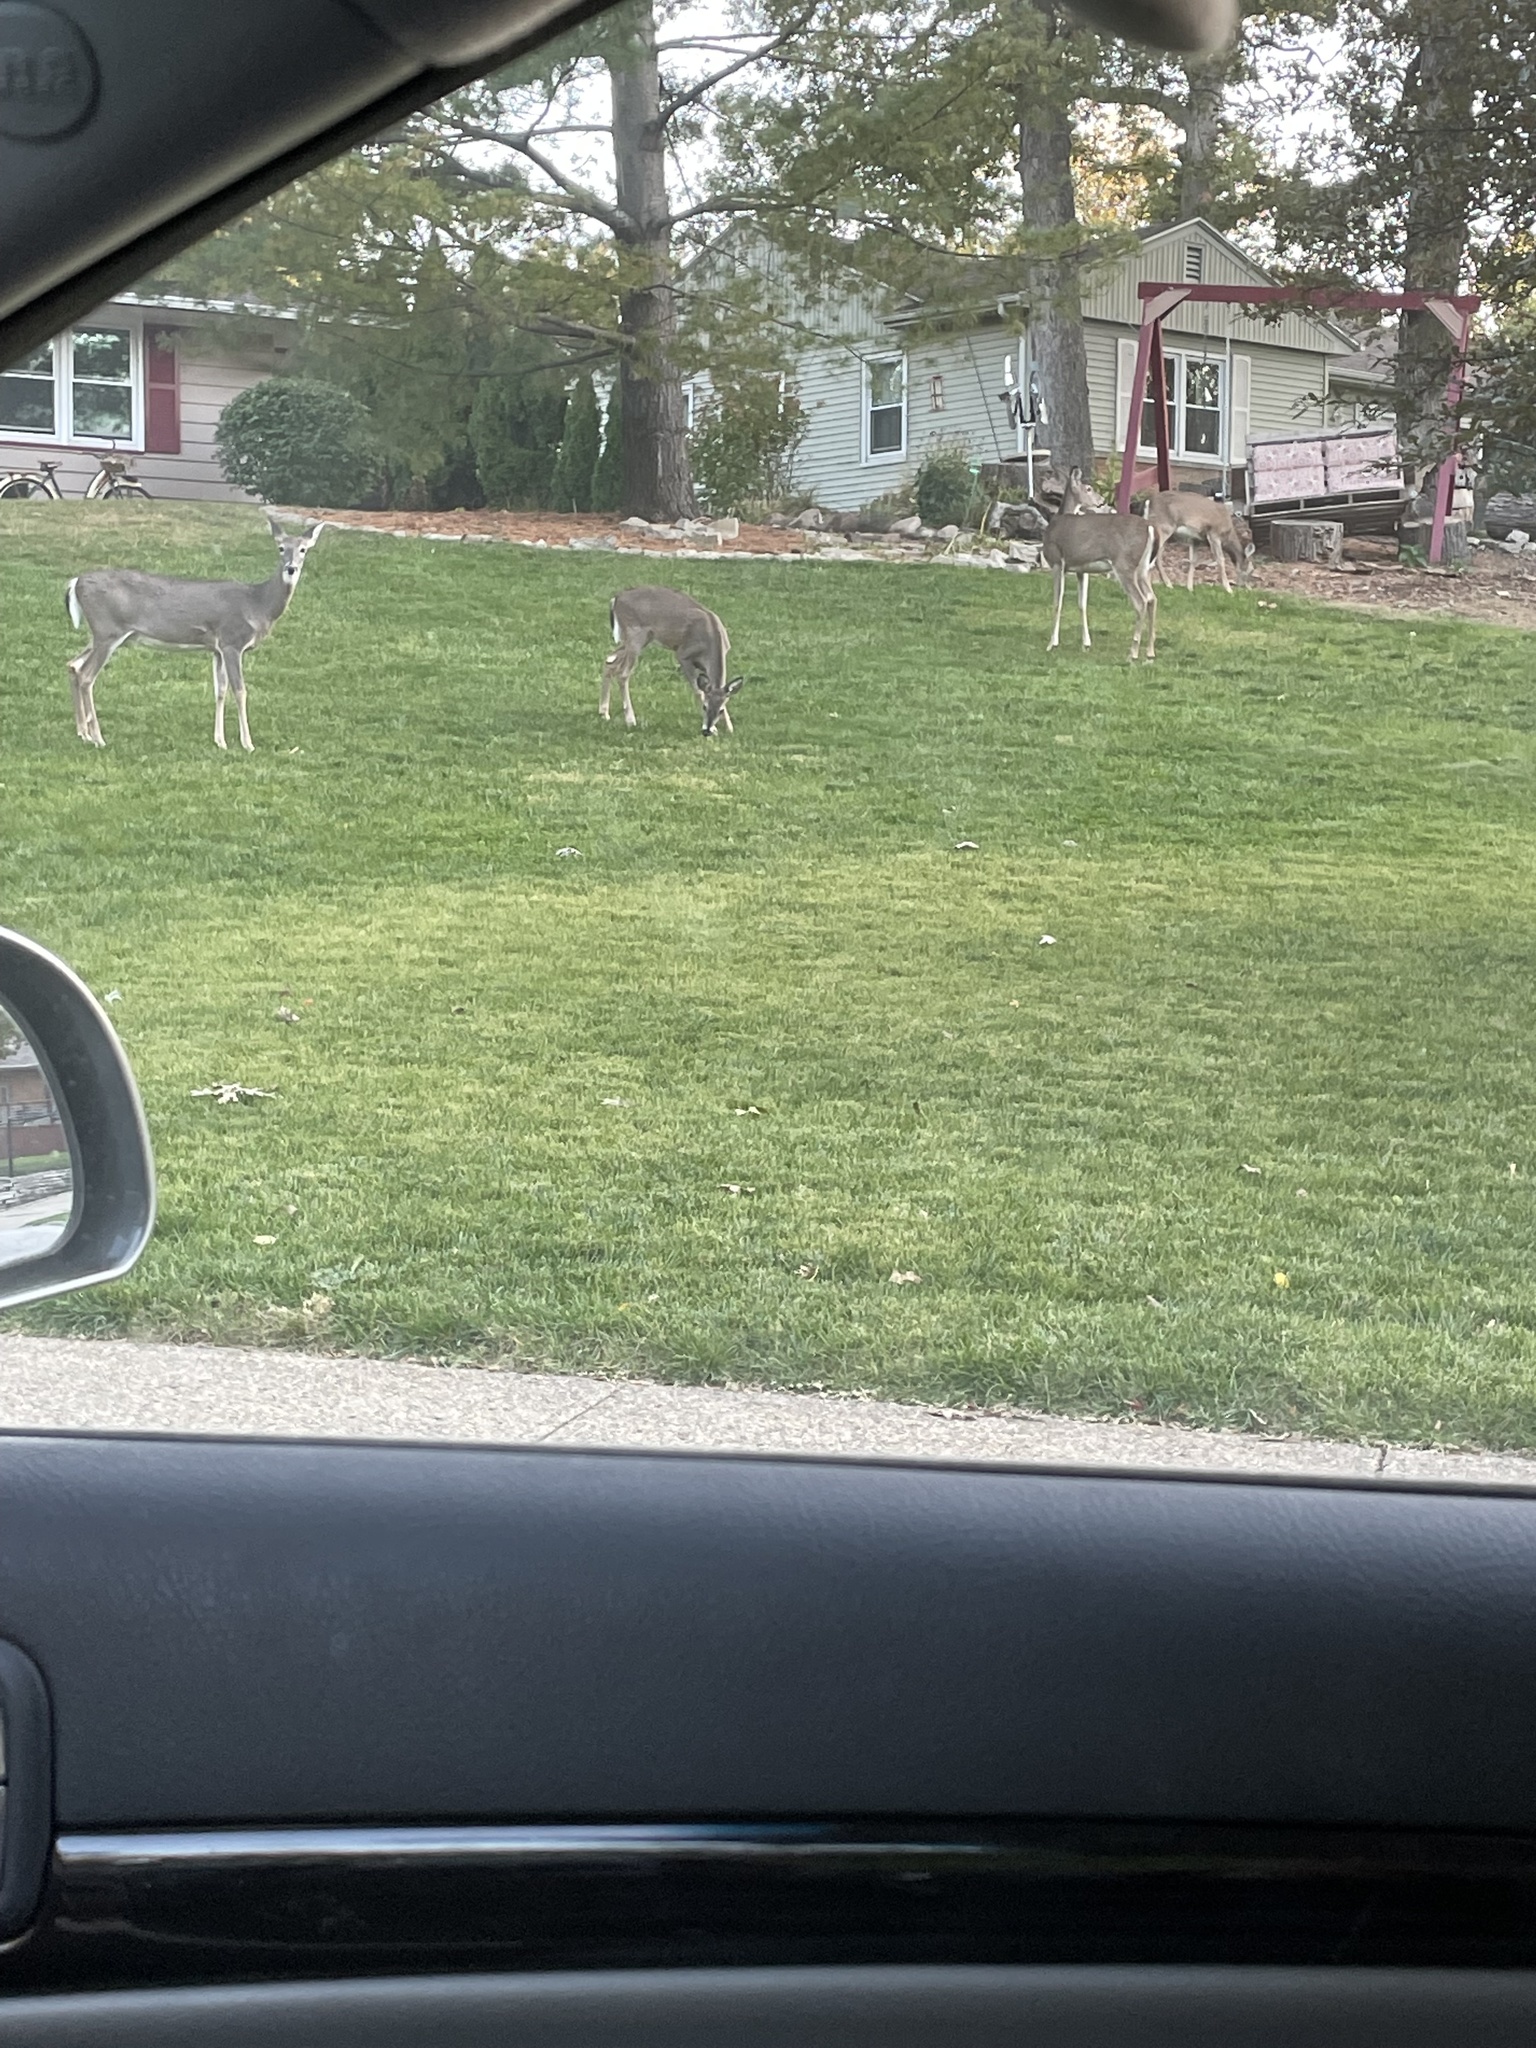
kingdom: Animalia
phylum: Chordata
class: Mammalia
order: Artiodactyla
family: Cervidae
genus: Odocoileus
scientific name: Odocoileus virginianus
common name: White-tailed deer
